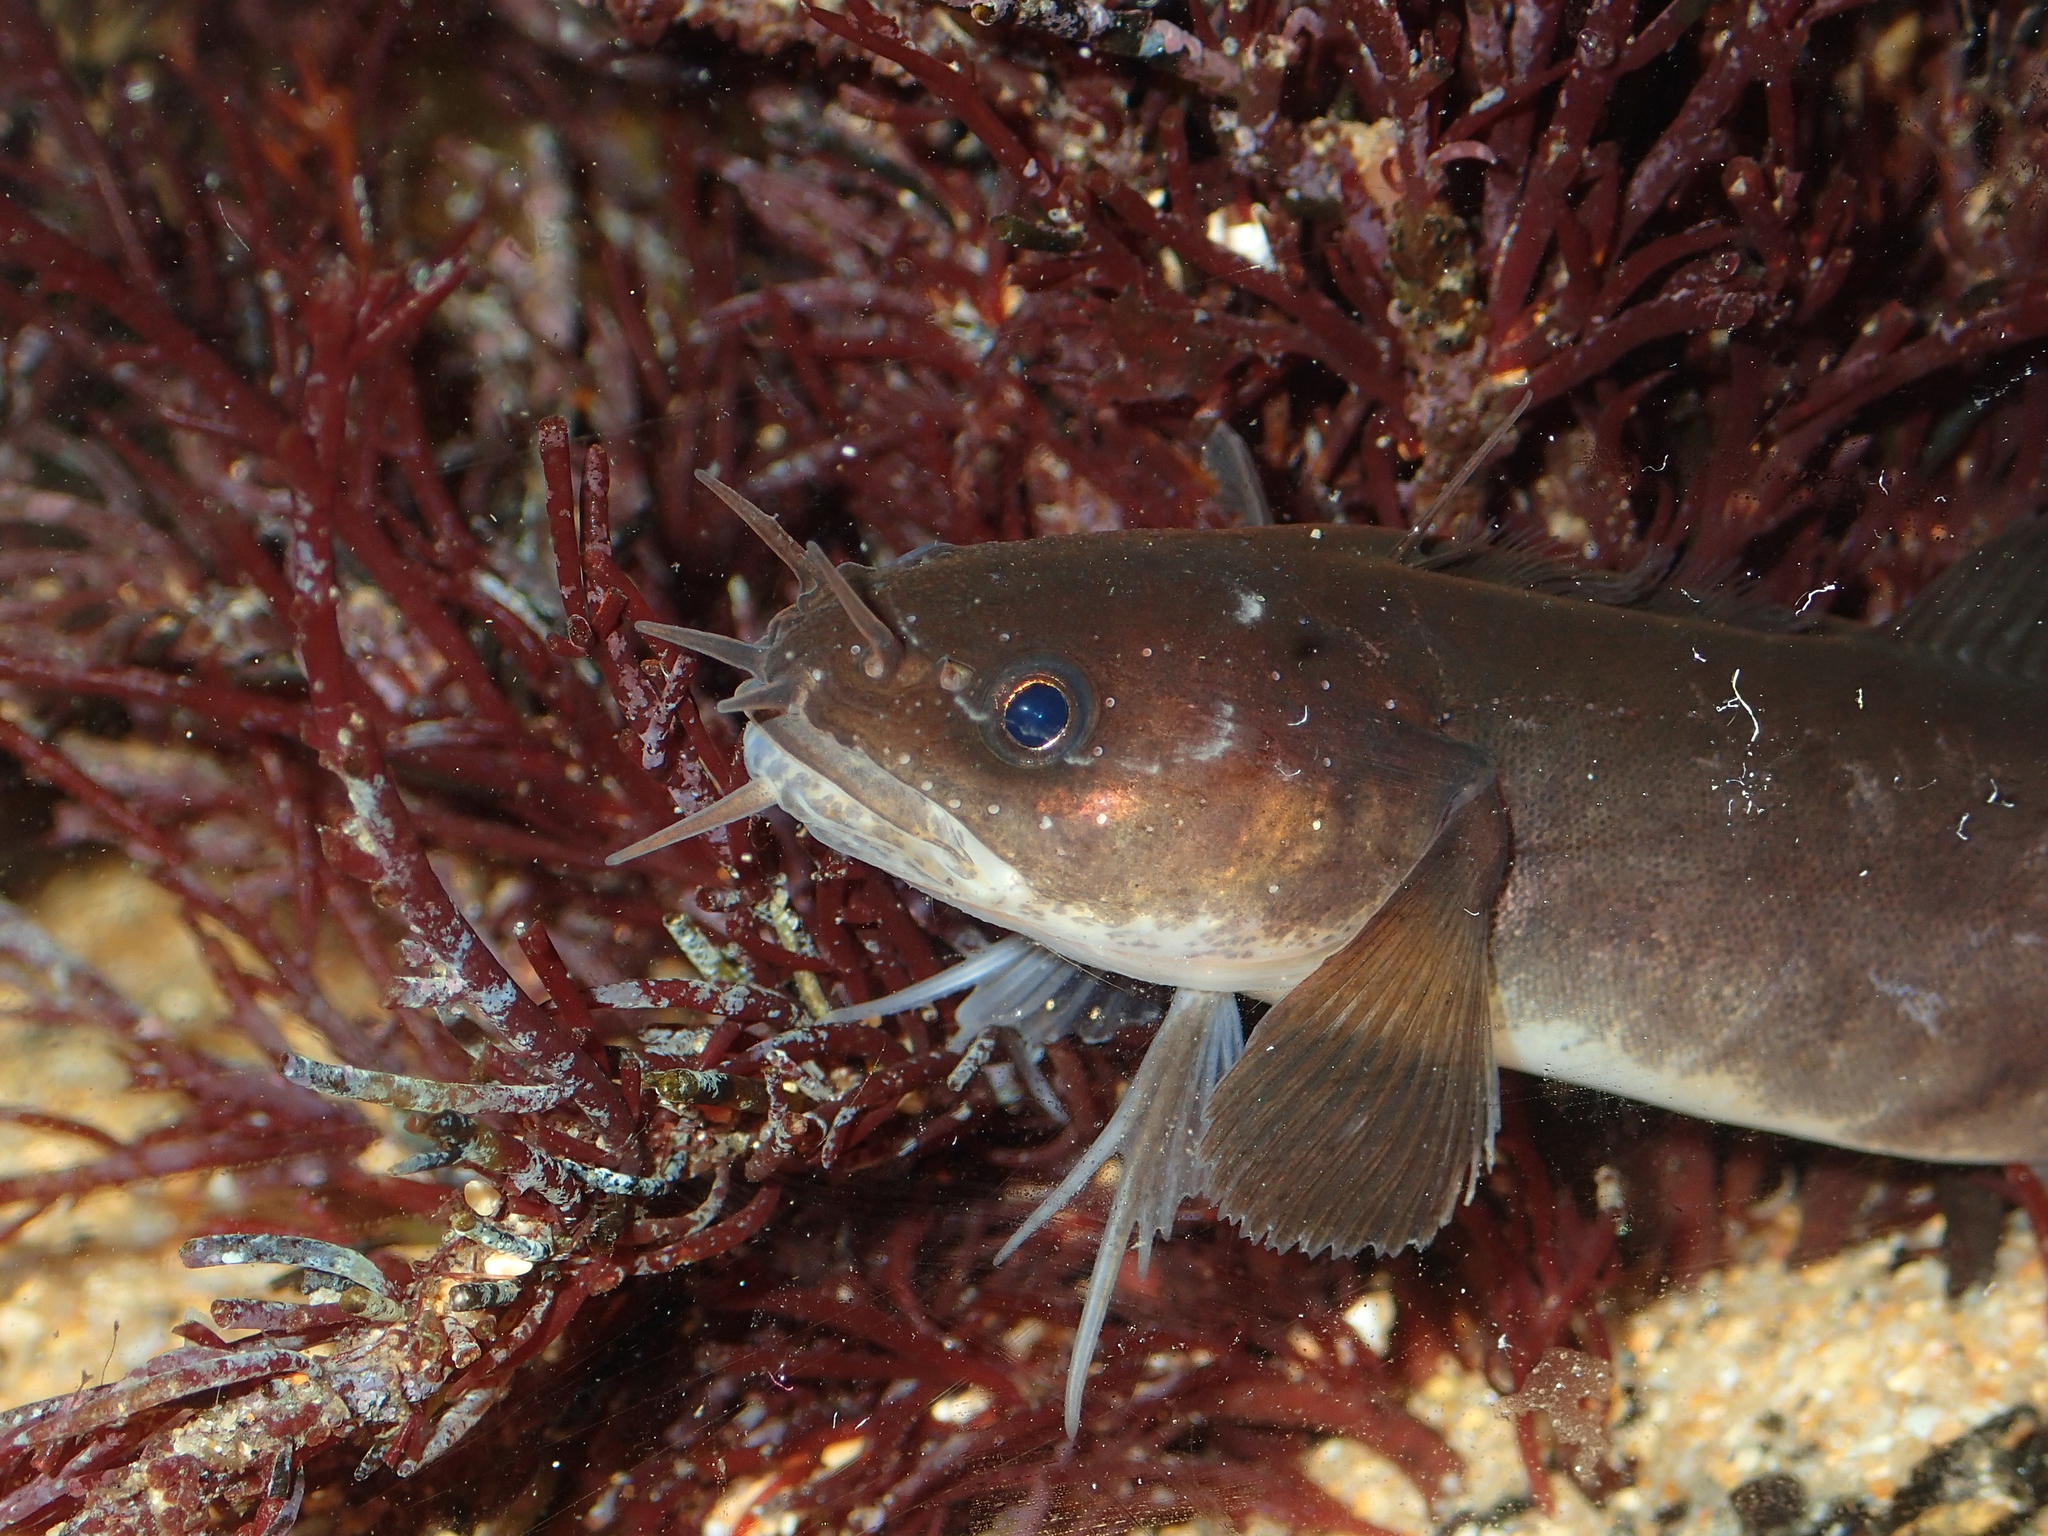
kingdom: Animalia
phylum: Chordata
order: Gadiformes
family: Lotidae
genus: Ciliata
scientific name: Ciliata mustela
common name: Five-bearded rockling
